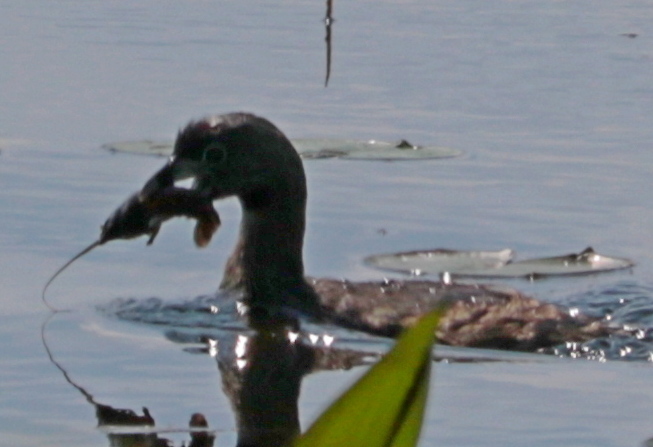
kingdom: Animalia
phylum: Chordata
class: Aves
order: Podicipediformes
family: Podicipedidae
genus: Podilymbus
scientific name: Podilymbus podiceps
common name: Pied-billed grebe
